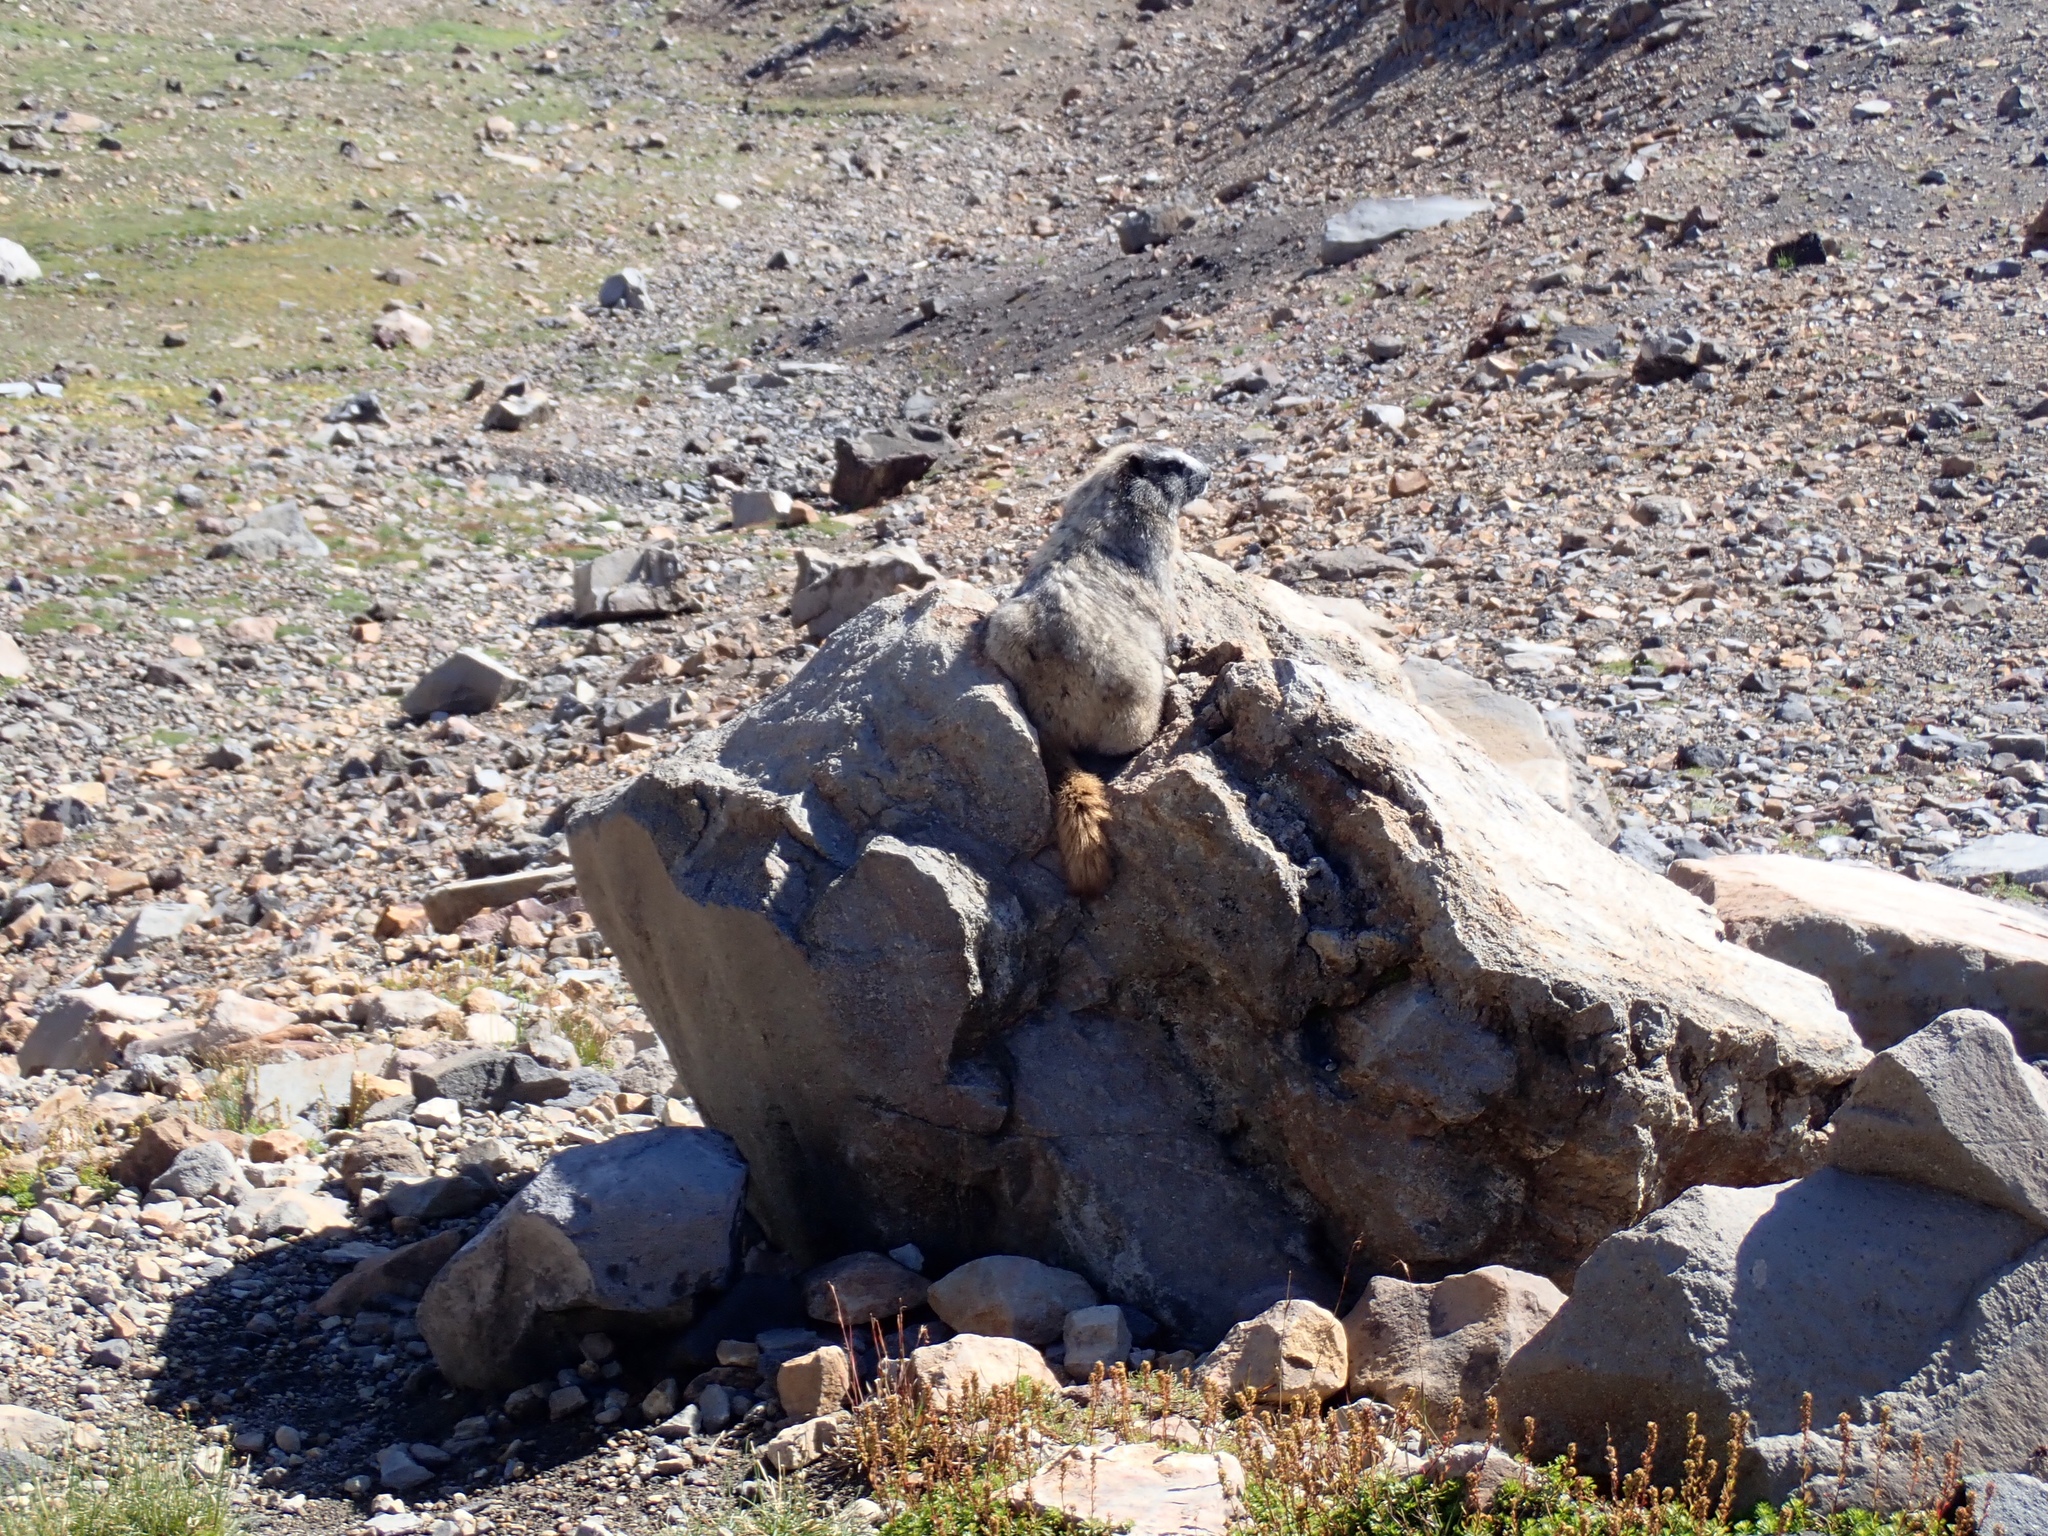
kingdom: Animalia
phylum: Chordata
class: Mammalia
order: Rodentia
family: Sciuridae
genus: Marmota
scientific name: Marmota caligata
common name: Hoary marmot
